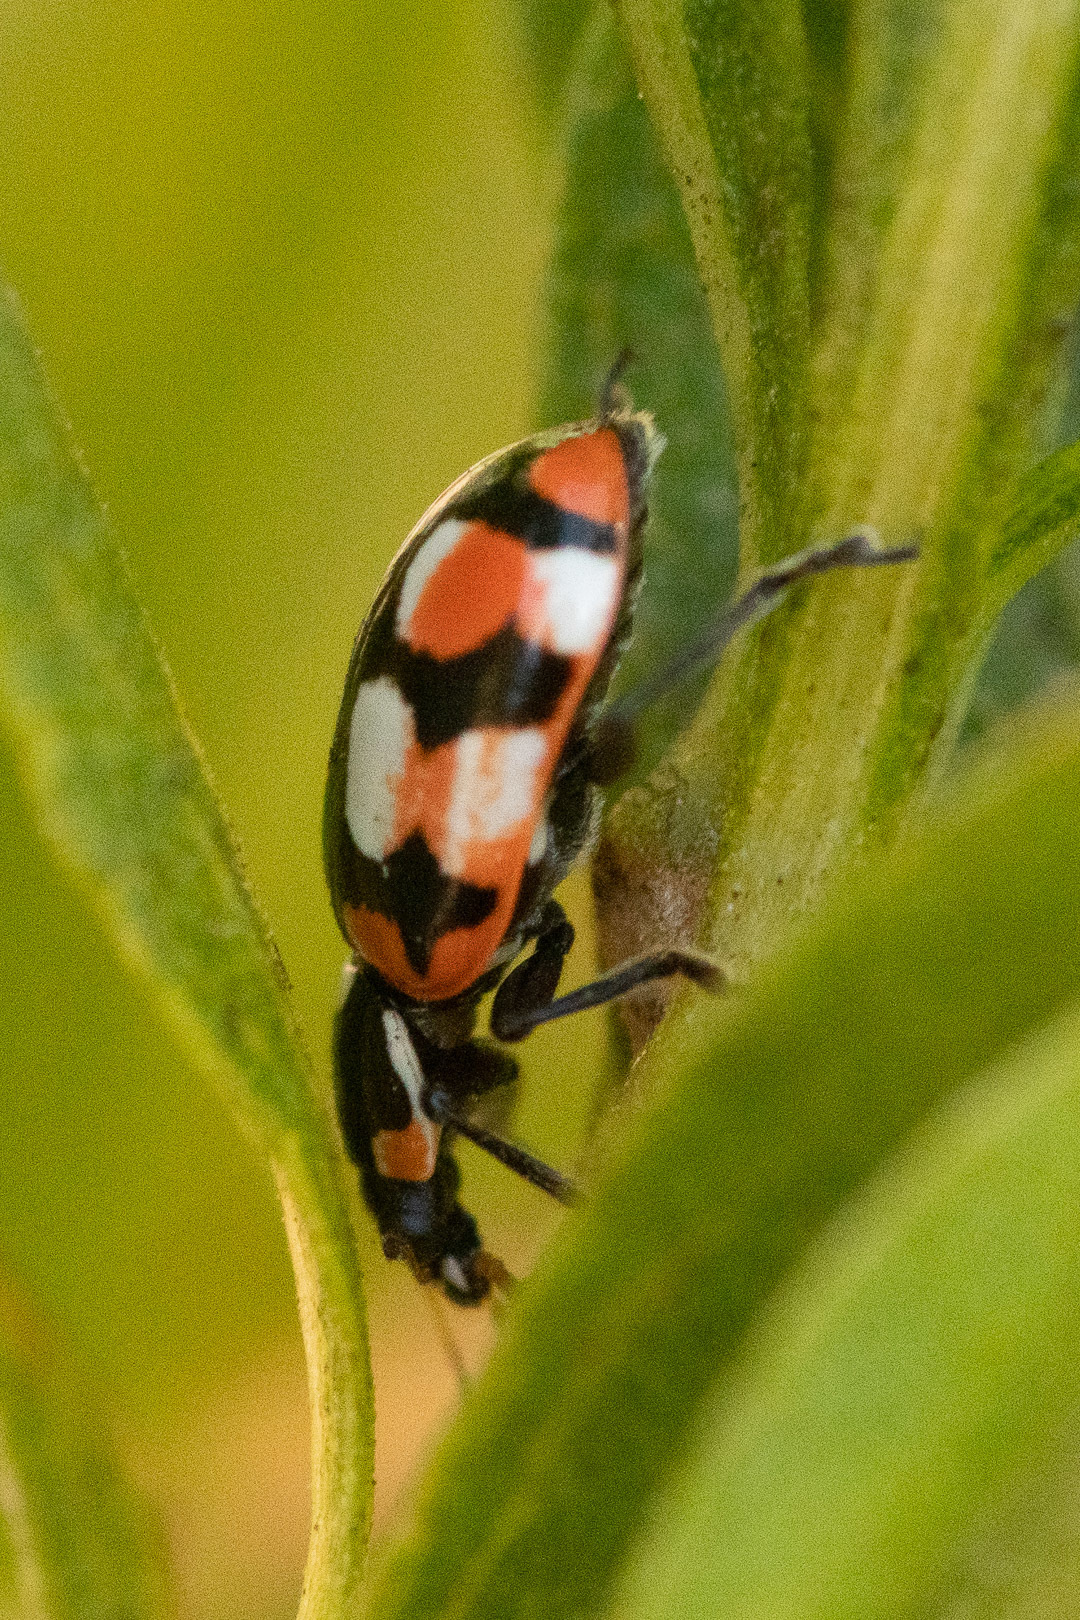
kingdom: Animalia
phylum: Arthropoda
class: Insecta
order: Coleoptera
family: Coccinellidae
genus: Eriopis
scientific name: Eriopis chilensis
